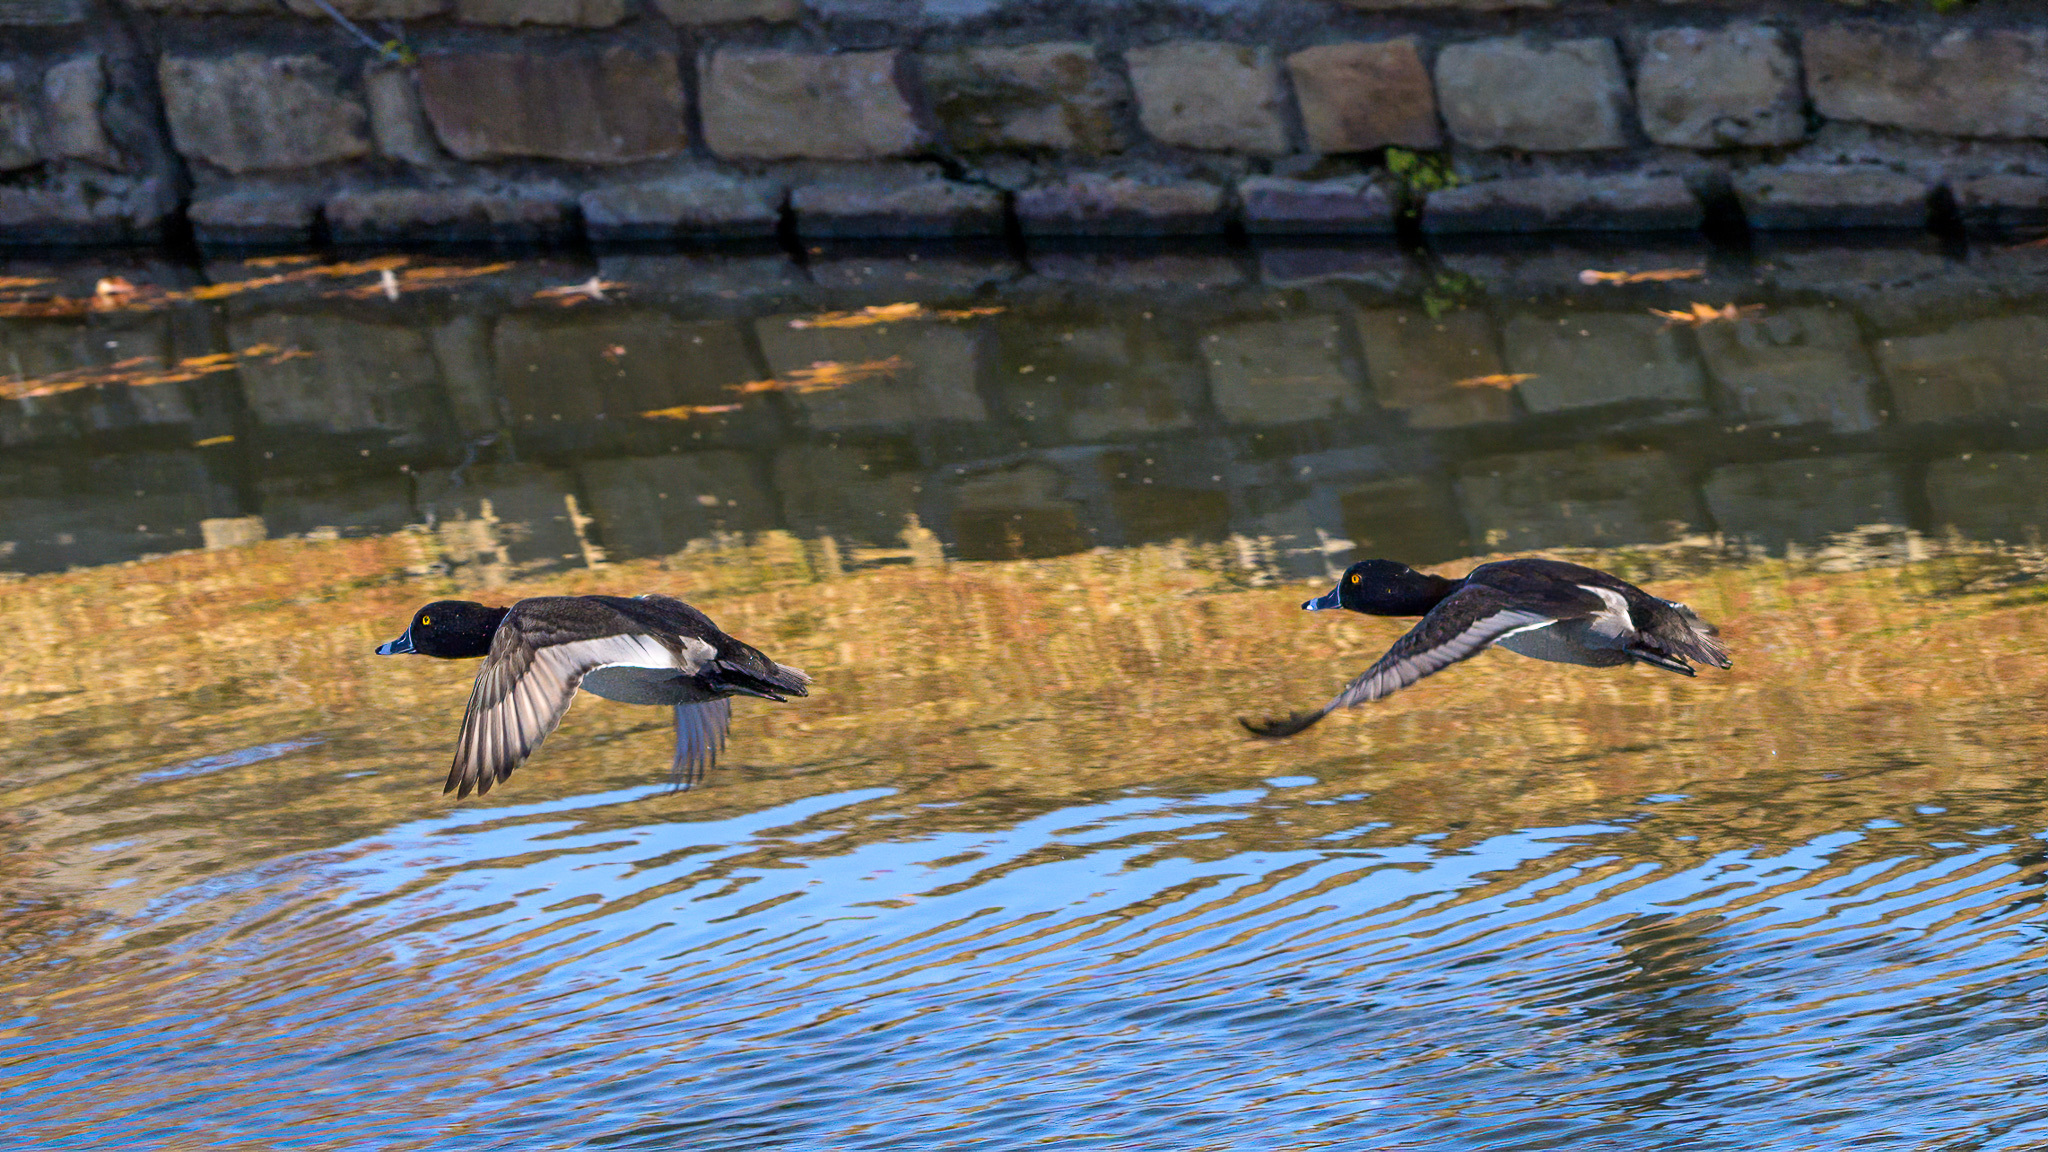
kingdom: Animalia
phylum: Chordata
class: Aves
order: Anseriformes
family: Anatidae
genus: Aythya
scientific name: Aythya collaris
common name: Ring-necked duck
